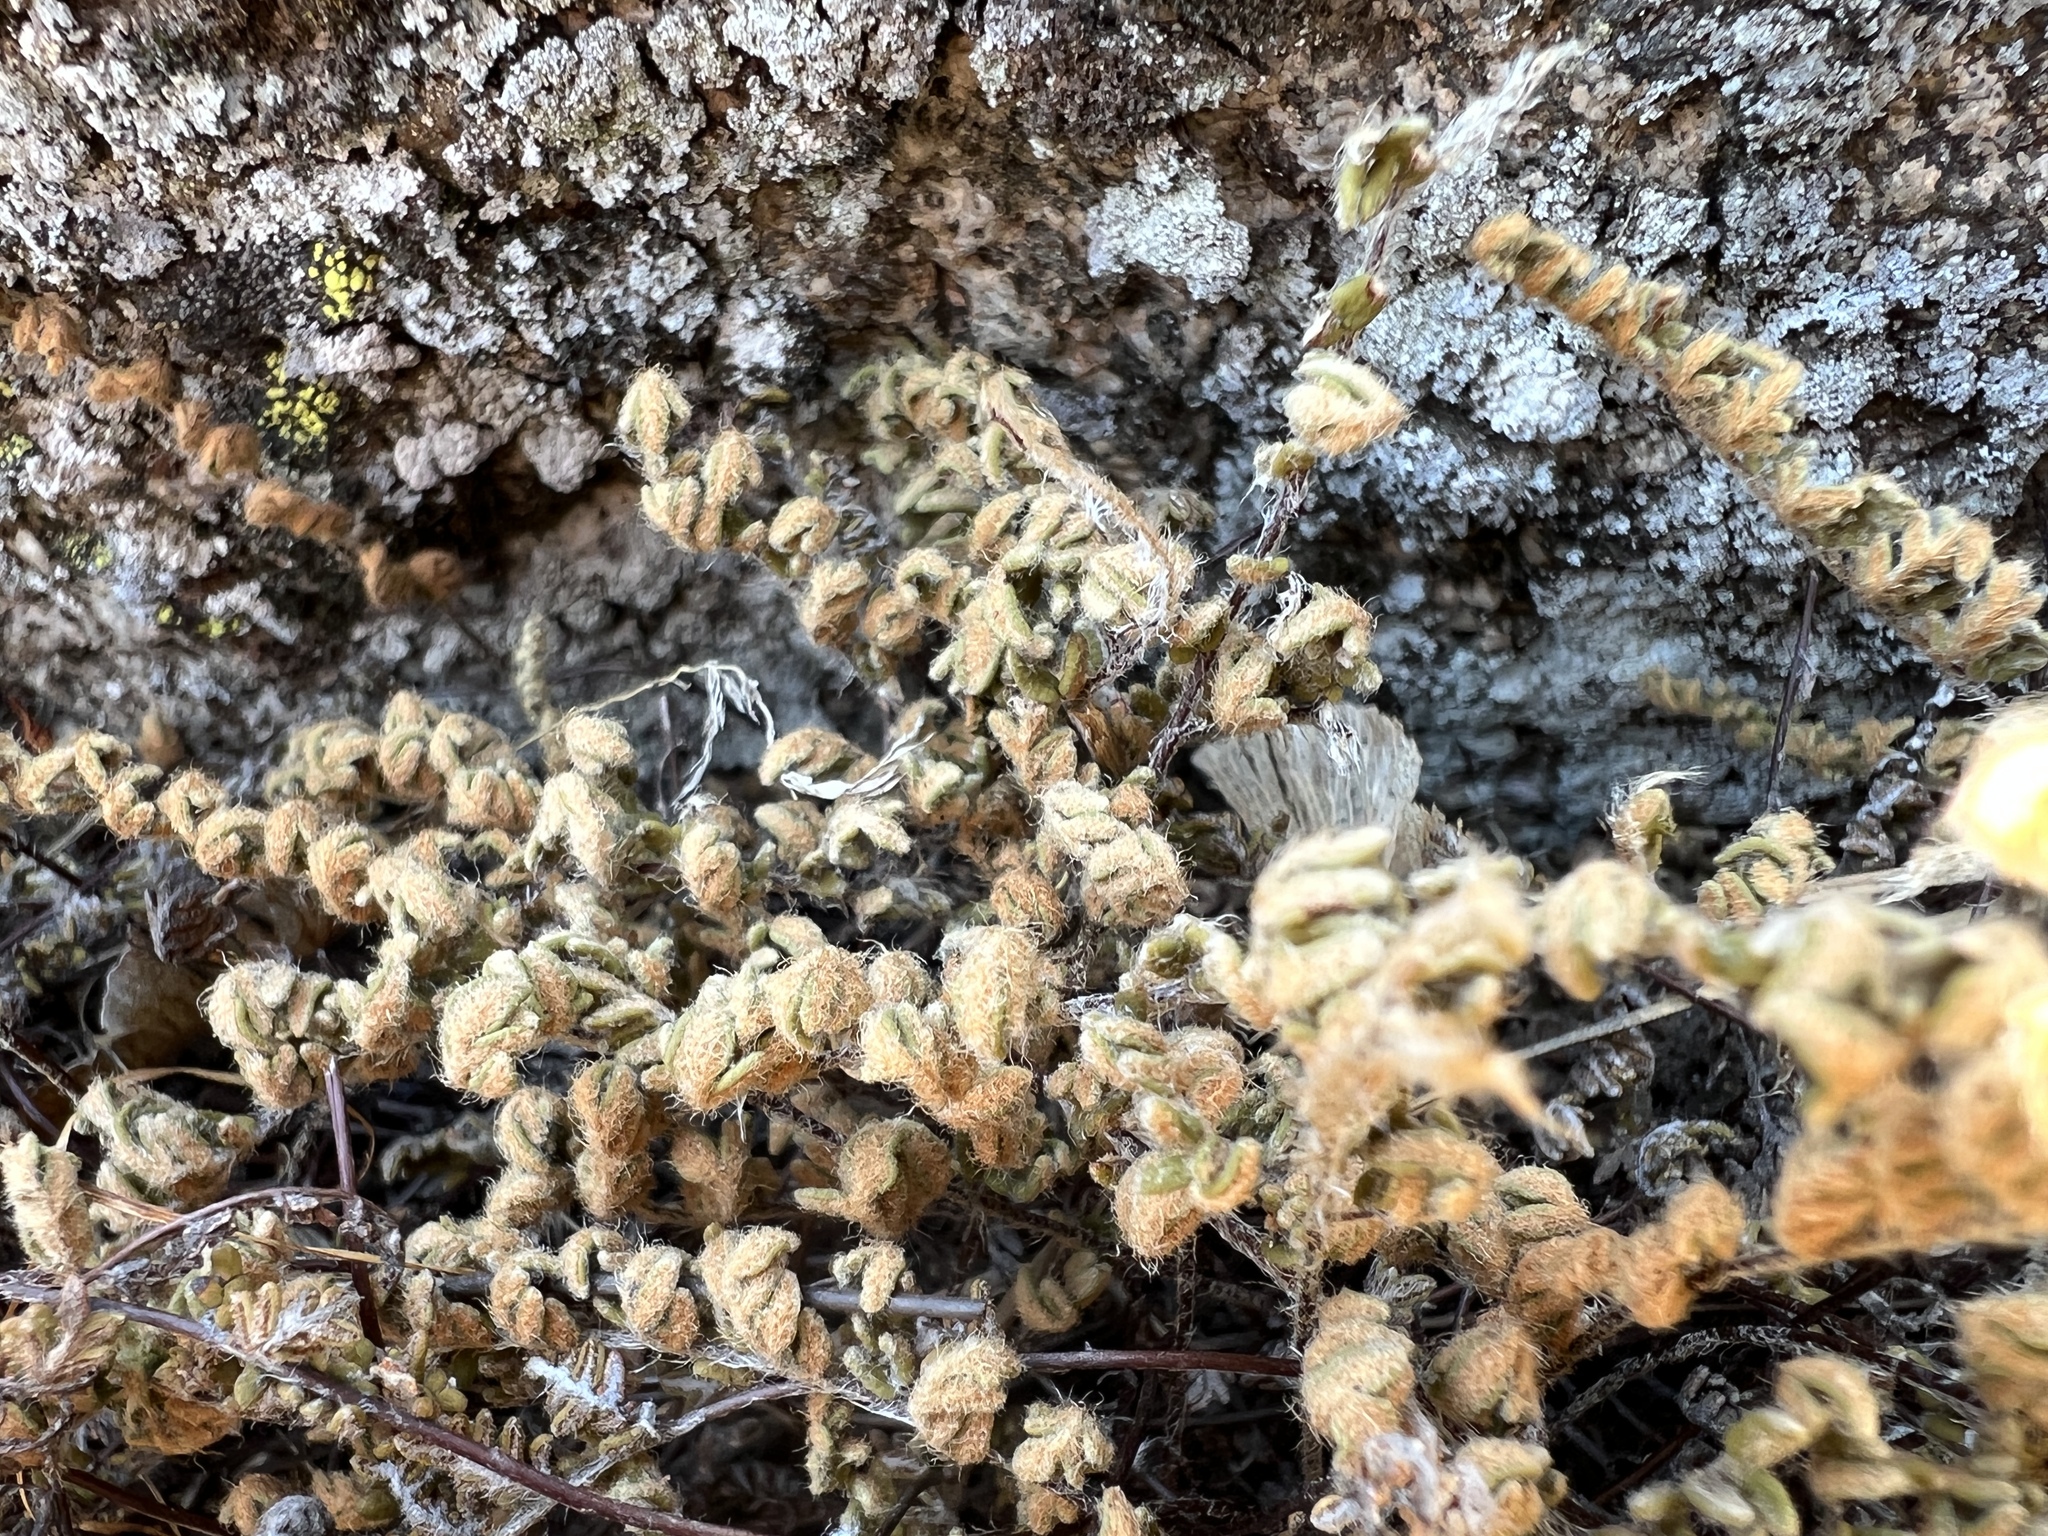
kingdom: Plantae
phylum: Tracheophyta
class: Polypodiopsida
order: Polypodiales
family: Pteridaceae
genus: Myriopteris
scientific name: Myriopteris gracillima
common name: Lace fern
